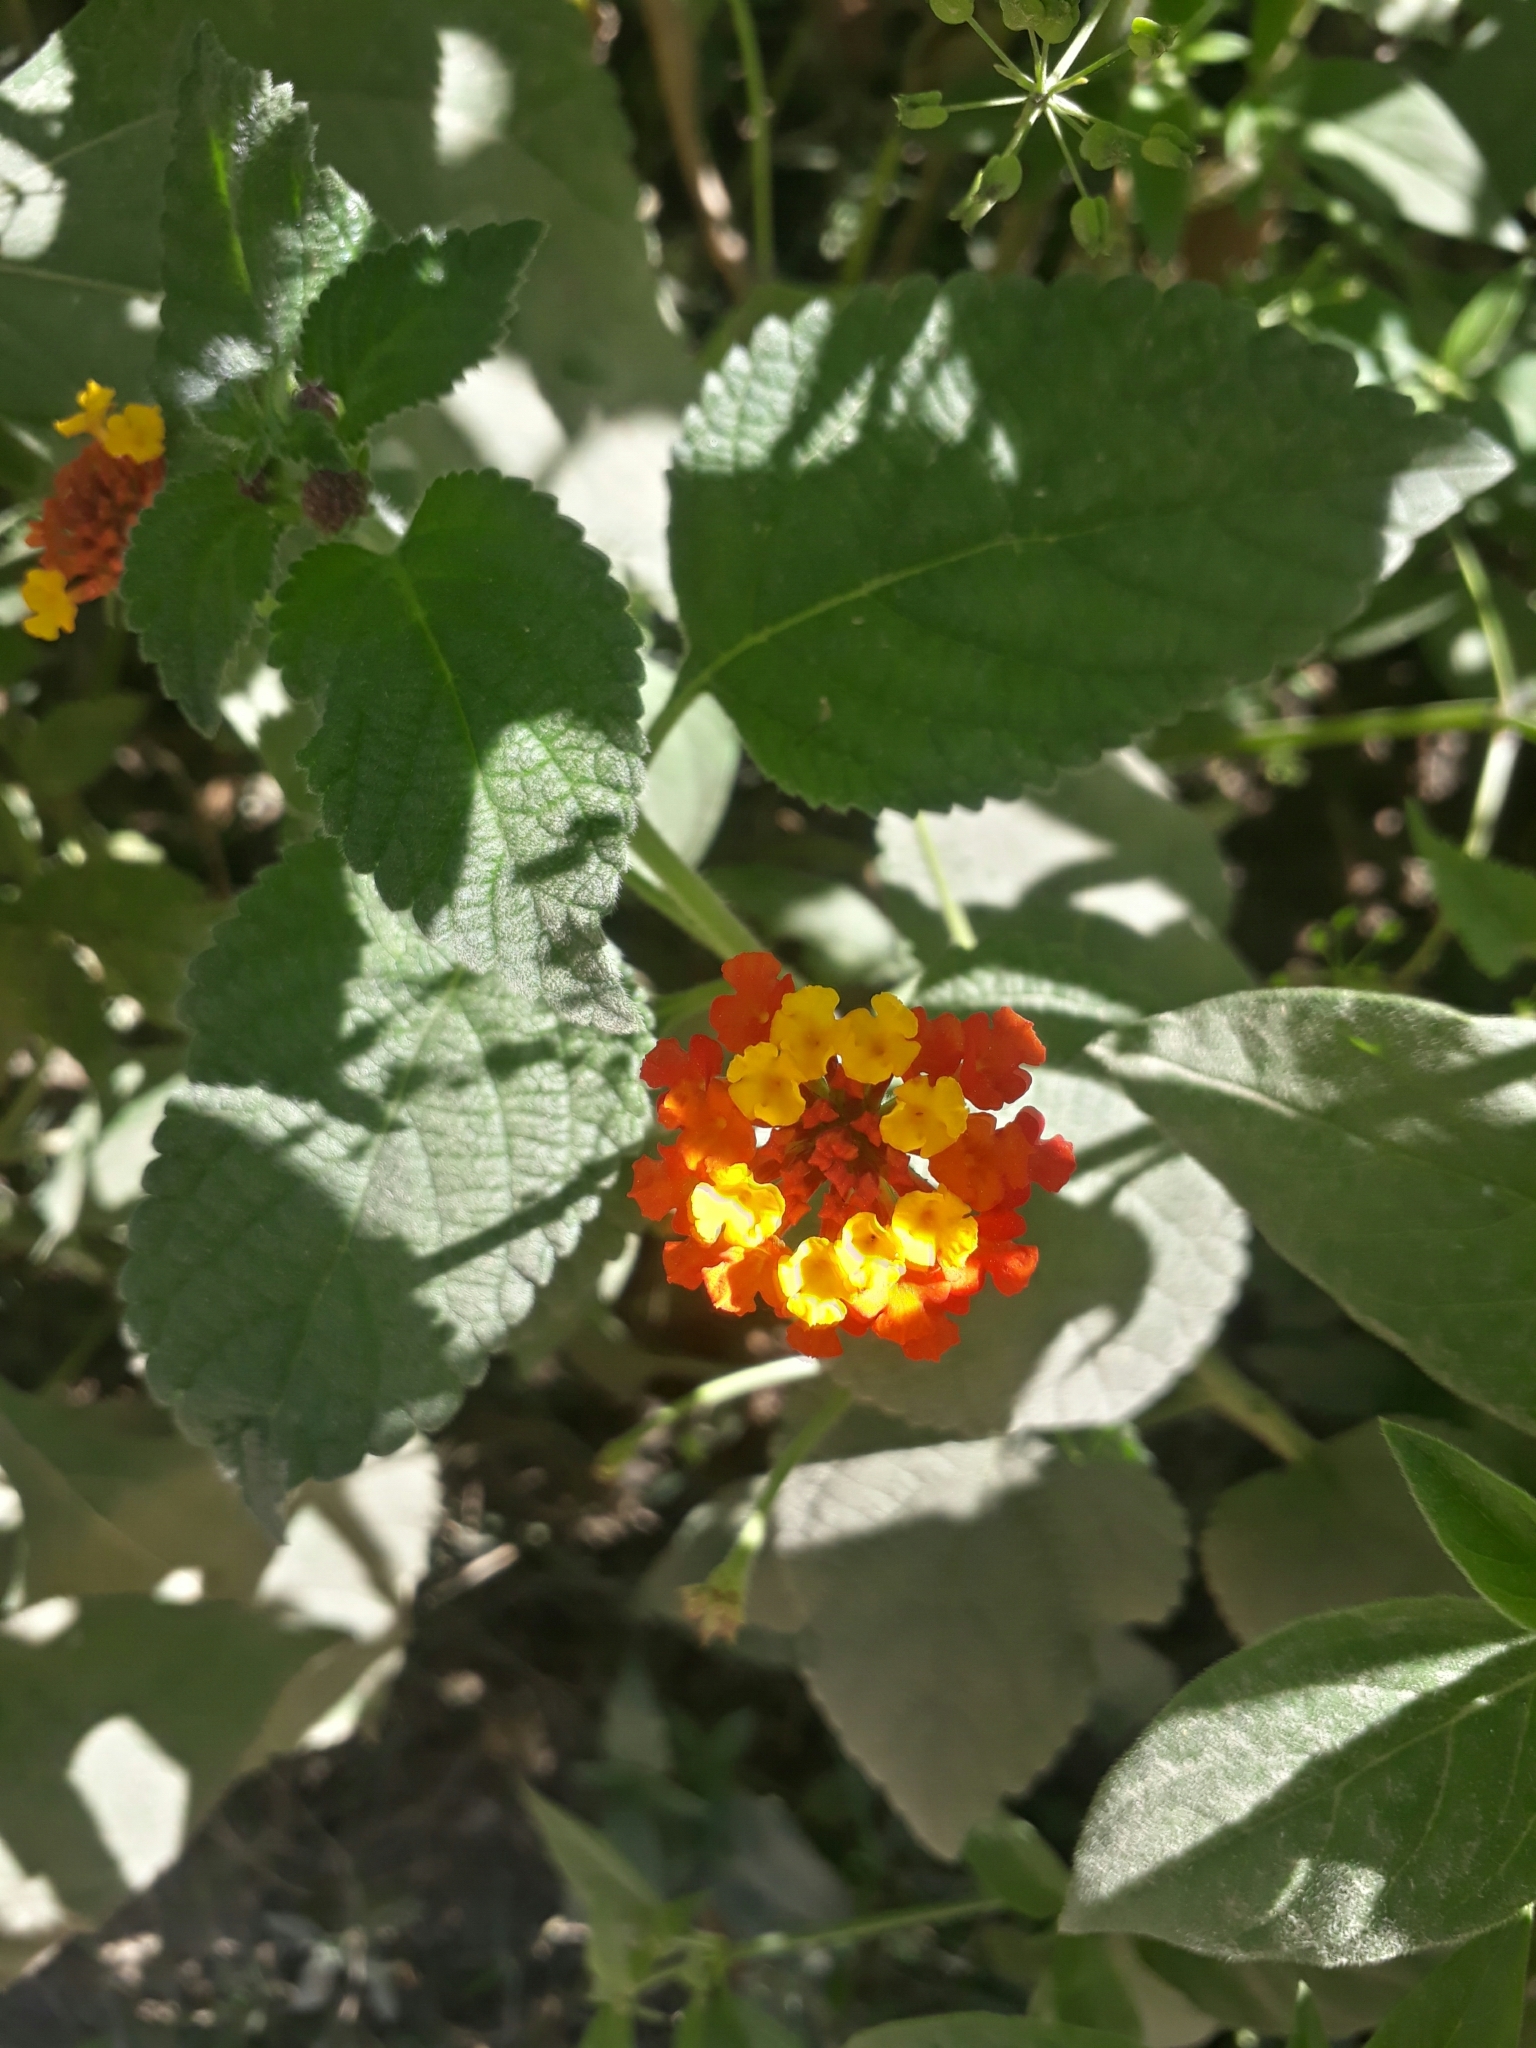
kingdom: Plantae
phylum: Tracheophyta
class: Magnoliopsida
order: Lamiales
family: Verbenaceae
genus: Lantana
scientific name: Lantana camara
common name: Lantana
